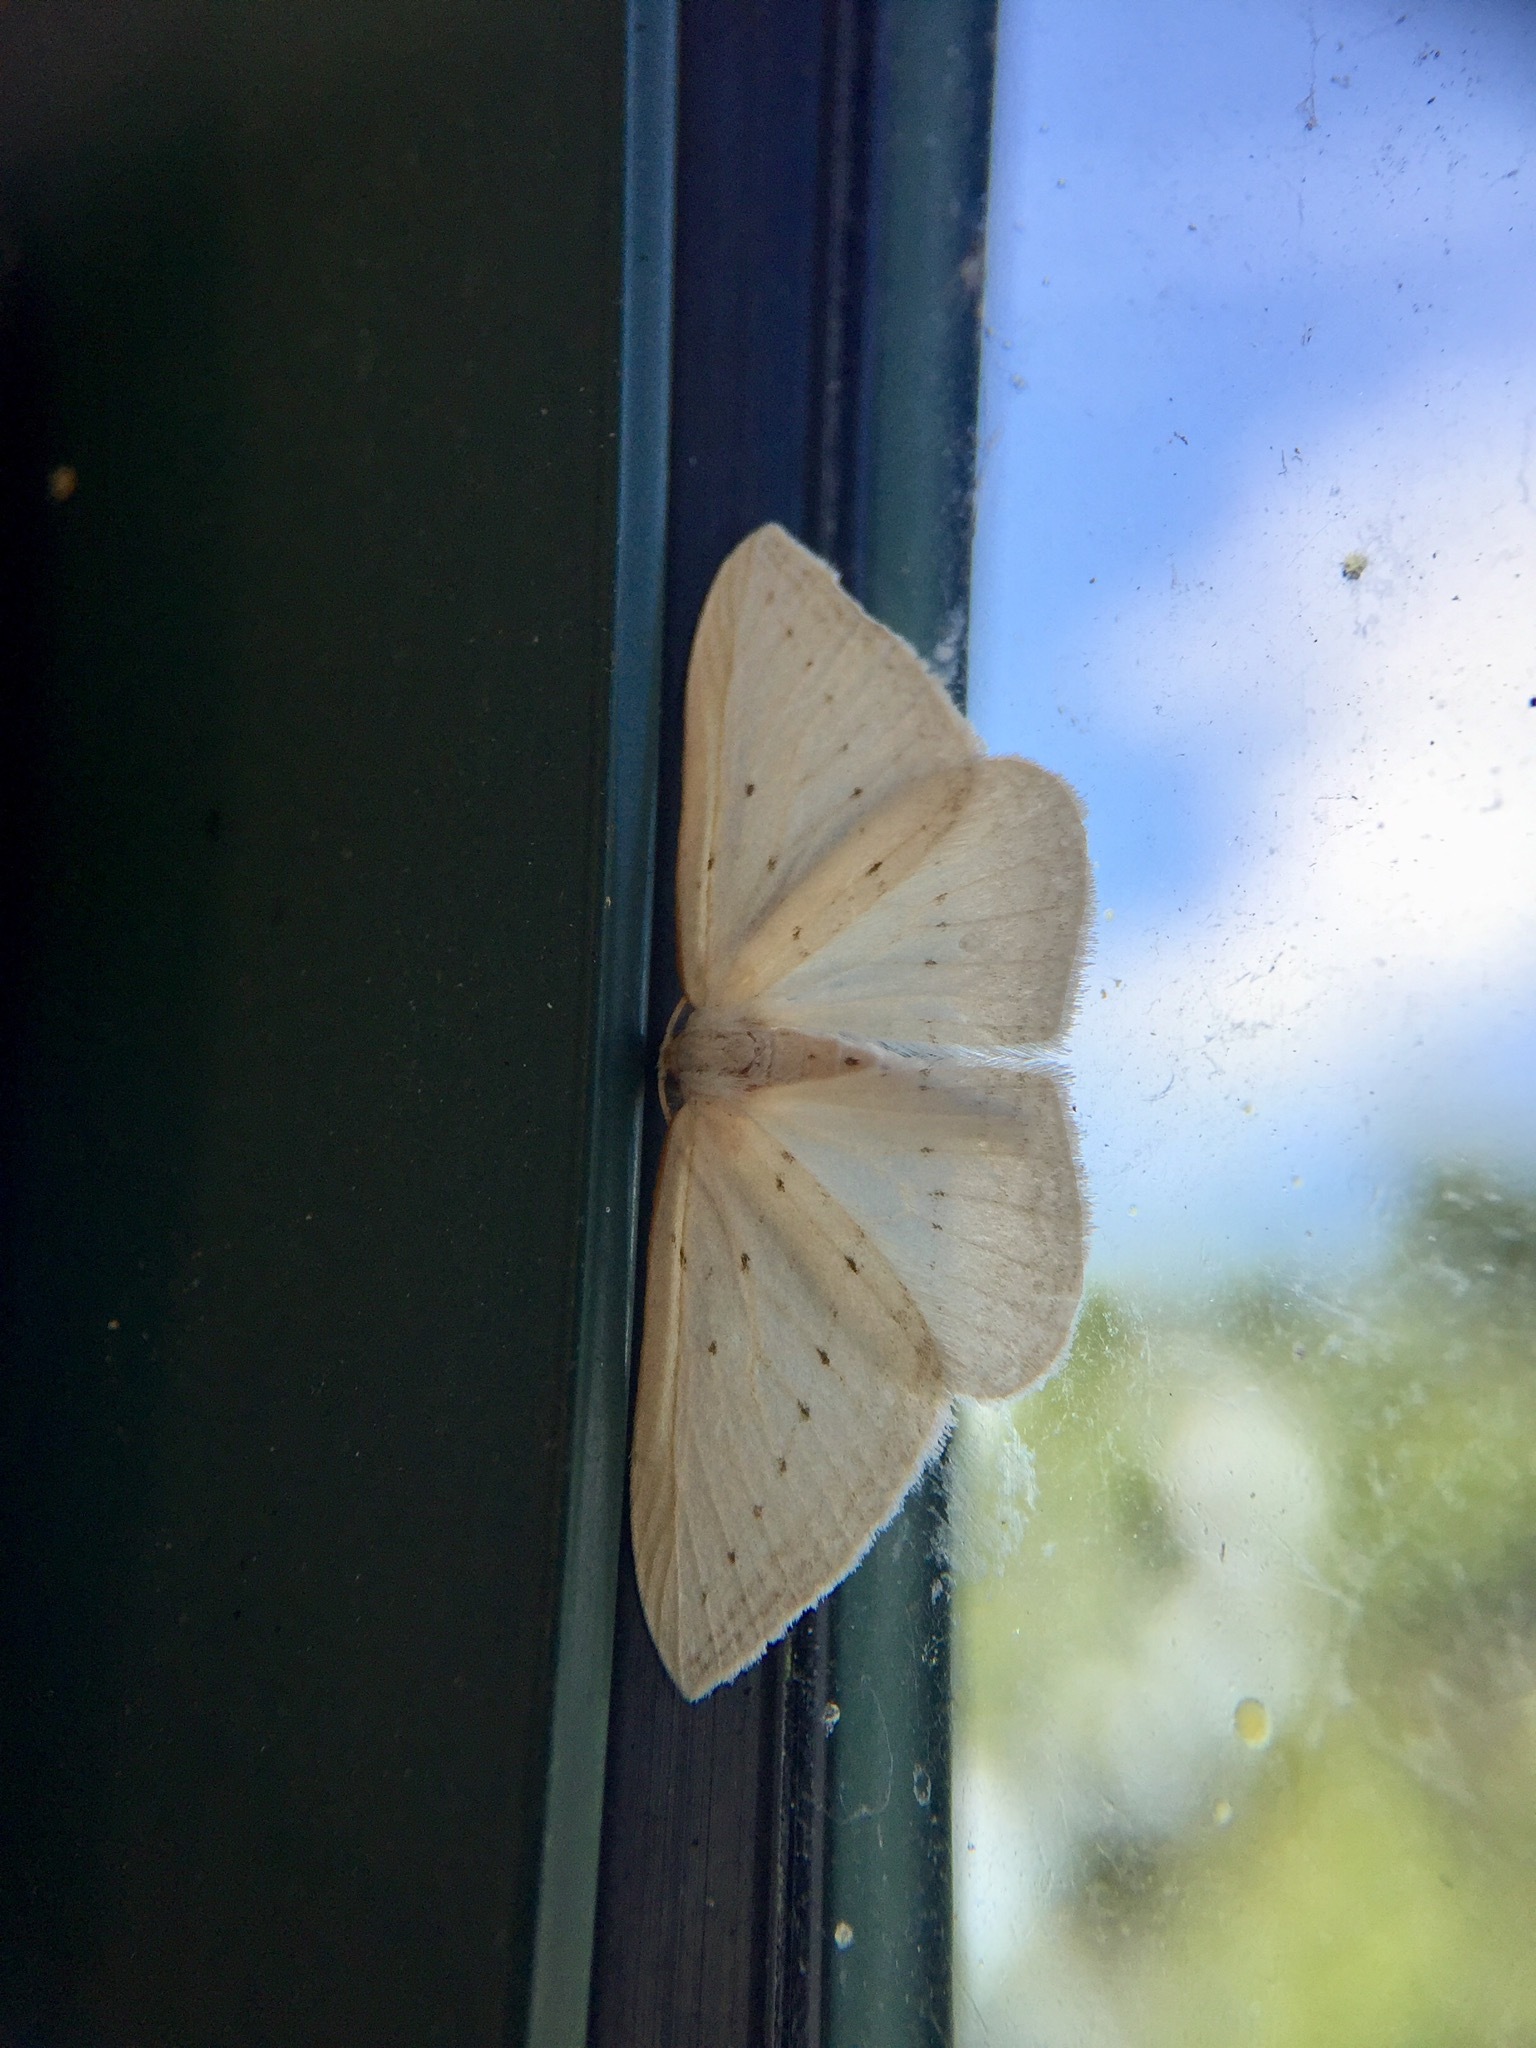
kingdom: Animalia
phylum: Arthropoda
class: Insecta
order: Lepidoptera
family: Geometridae
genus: Orthoclydon
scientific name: Orthoclydon praefectata
